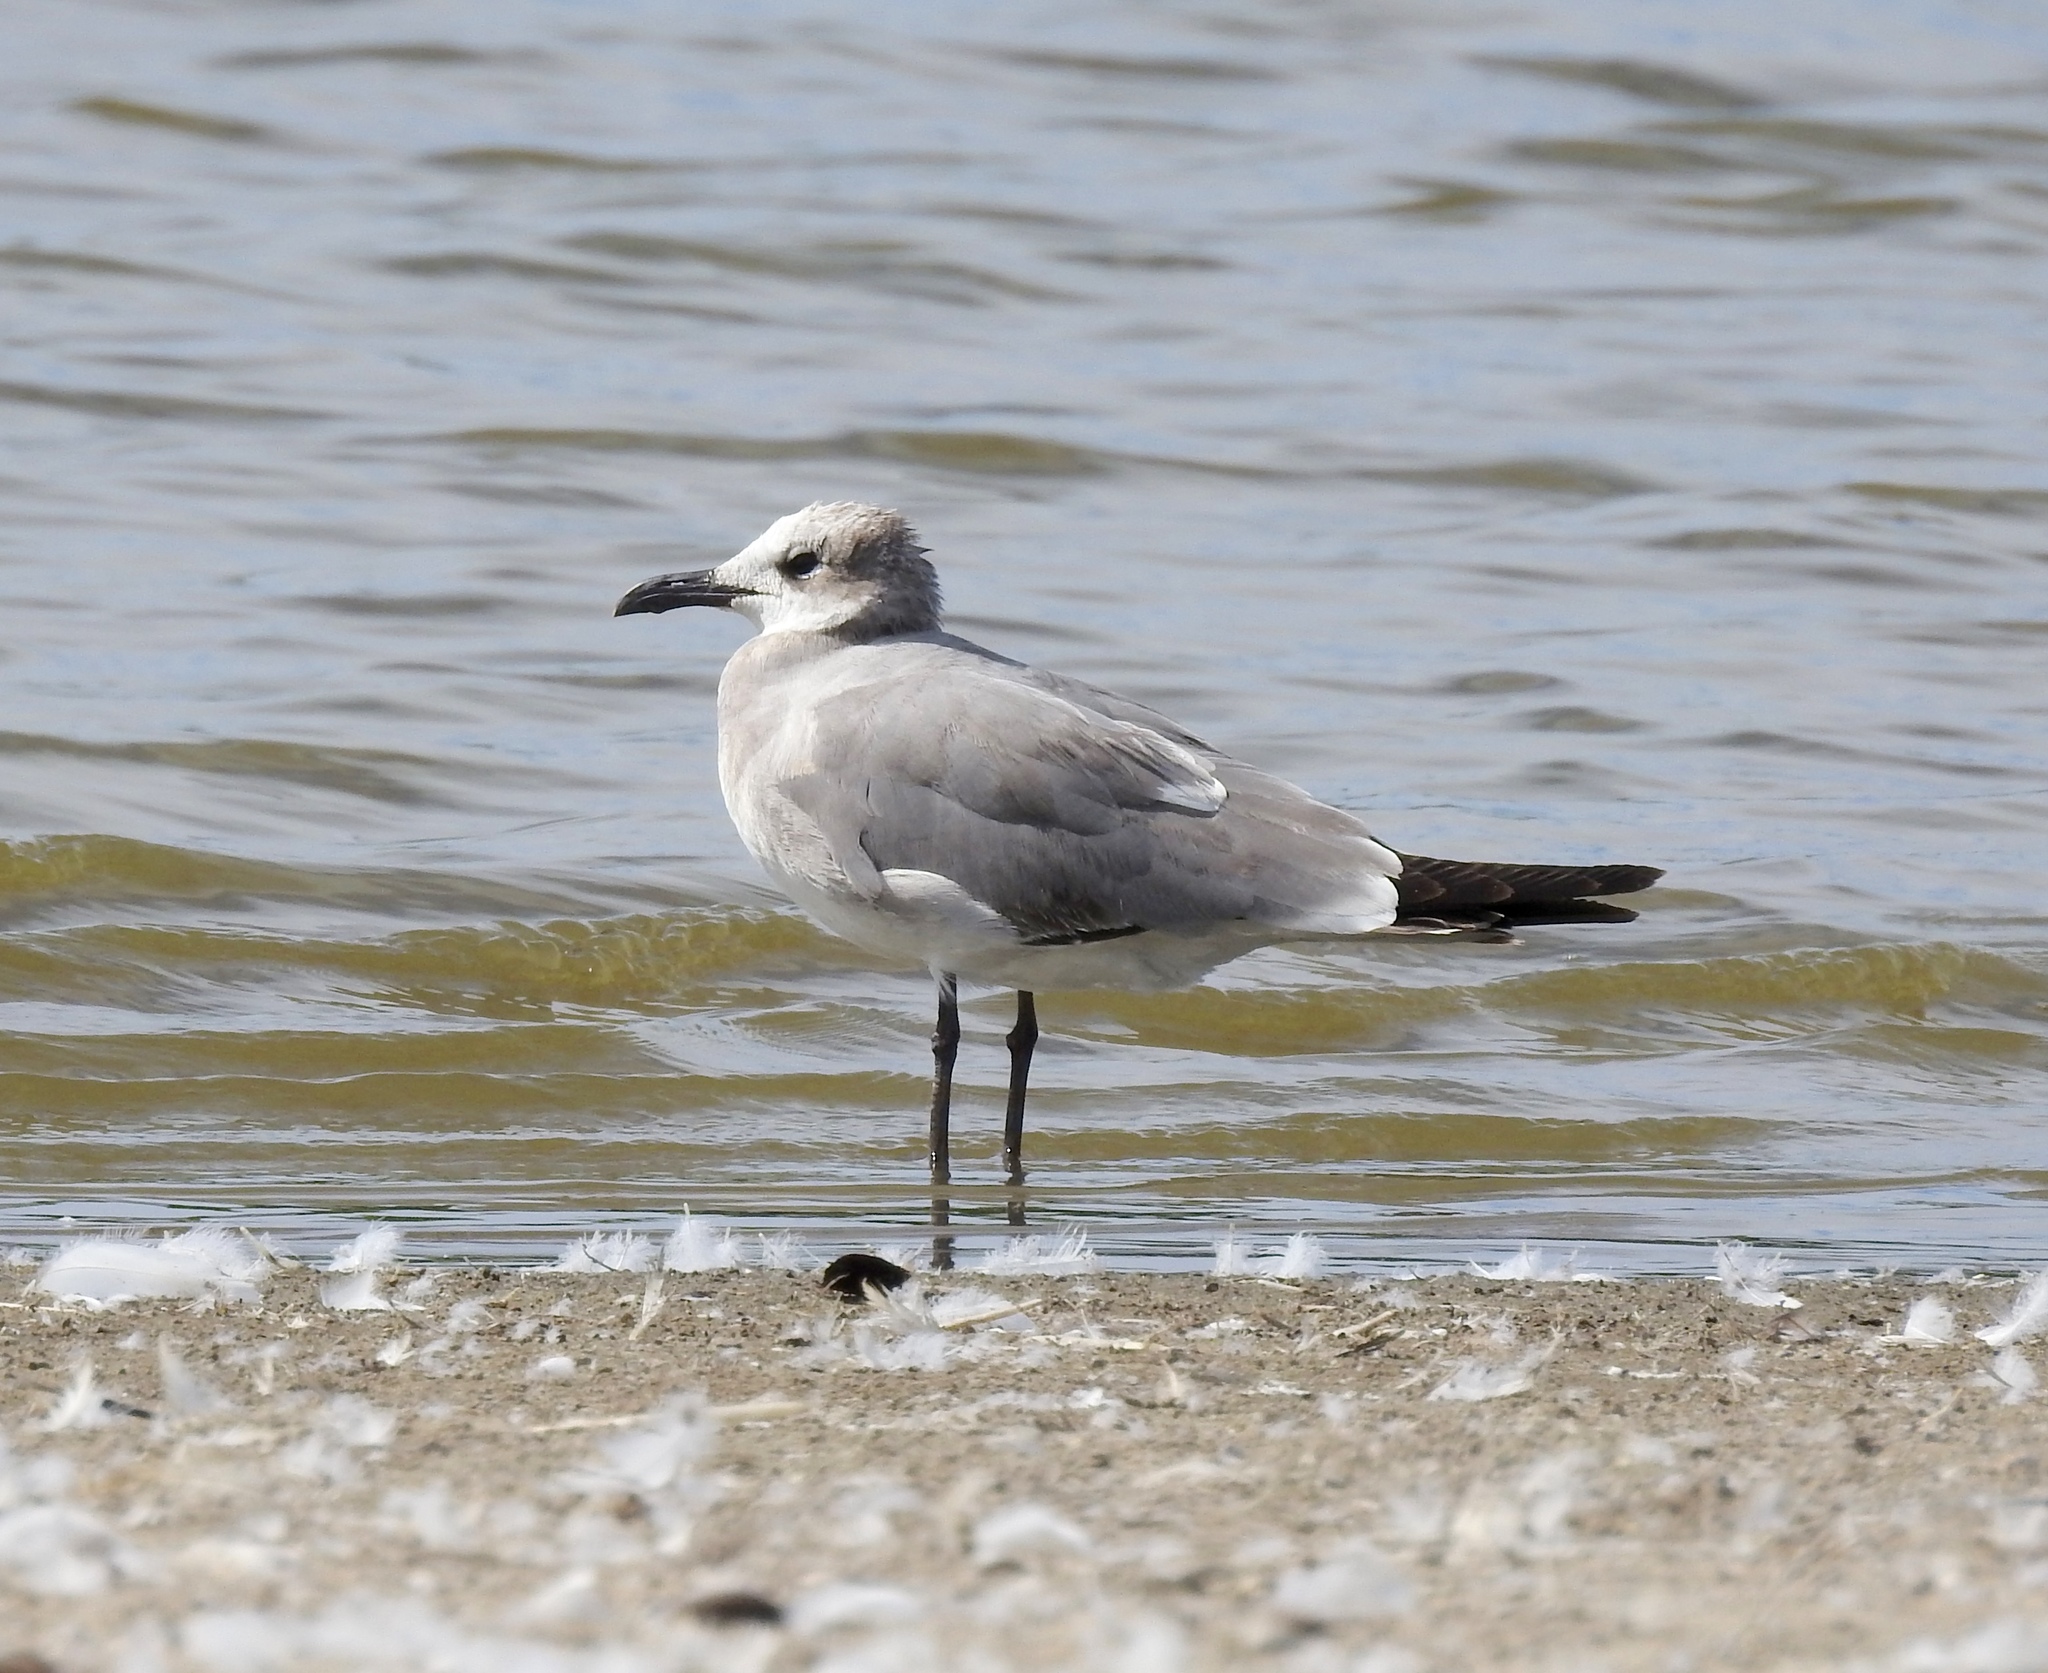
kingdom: Animalia
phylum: Chordata
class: Aves
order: Charadriiformes
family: Laridae
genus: Leucophaeus
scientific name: Leucophaeus atricilla
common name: Laughing gull
